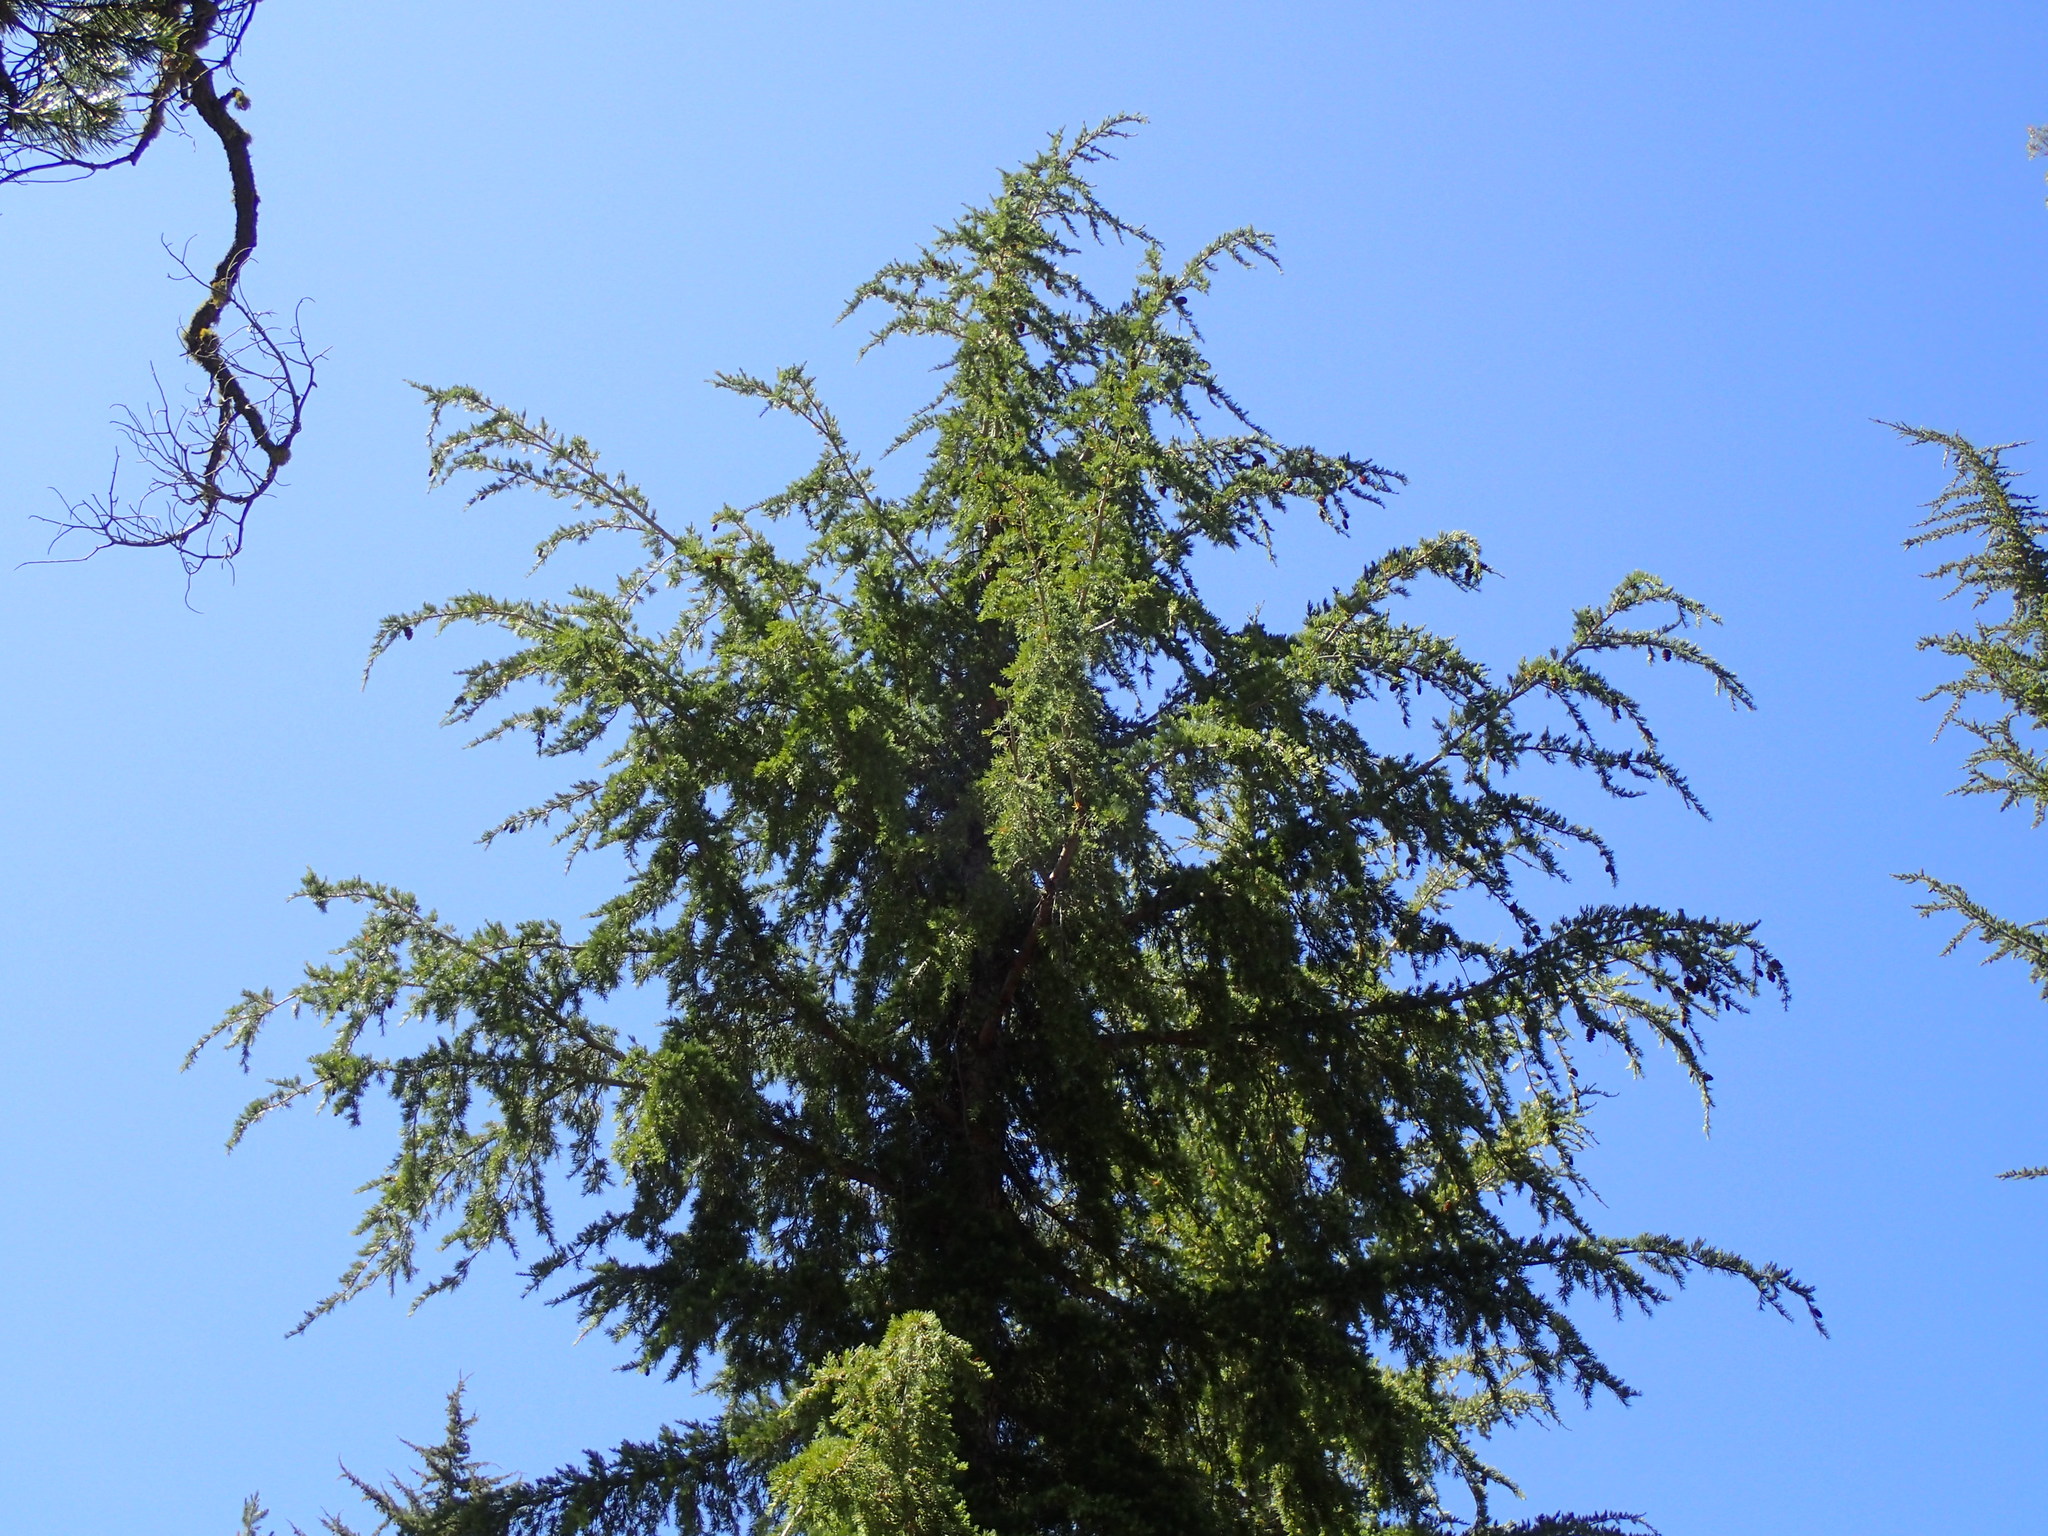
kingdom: Plantae
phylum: Tracheophyta
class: Pinopsida
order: Pinales
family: Pinaceae
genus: Tsuga
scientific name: Tsuga mertensiana
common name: Mountain hemlock
